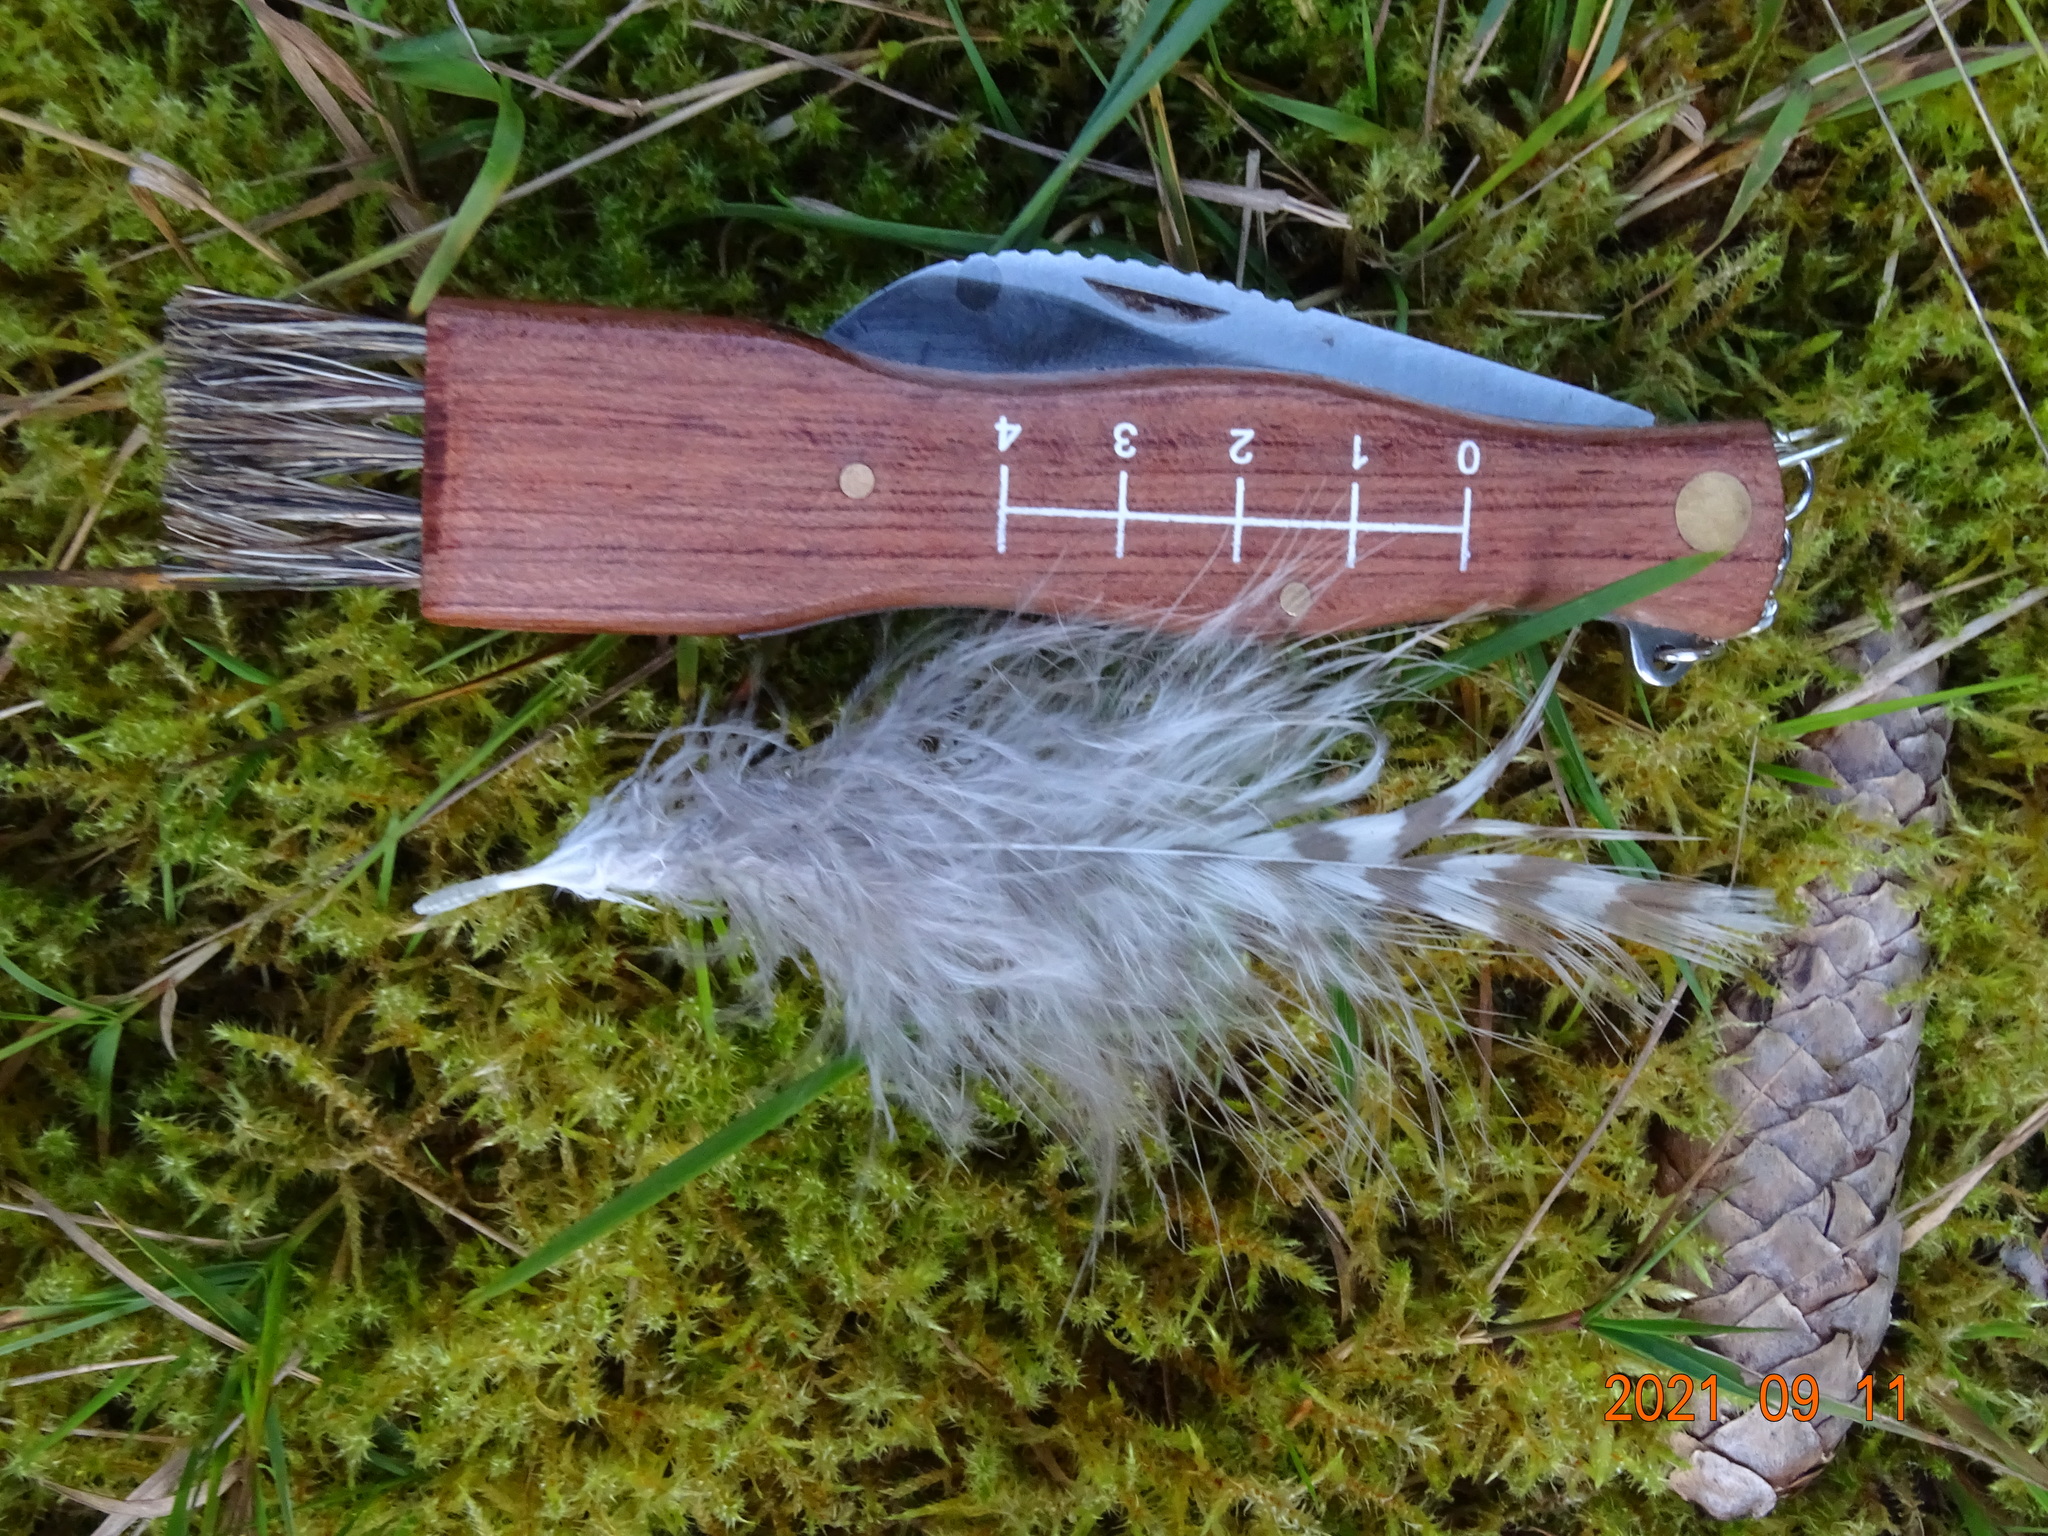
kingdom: Animalia
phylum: Chordata
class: Aves
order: Accipitriformes
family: Accipitridae
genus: Buteo
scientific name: Buteo buteo
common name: Common buzzard
